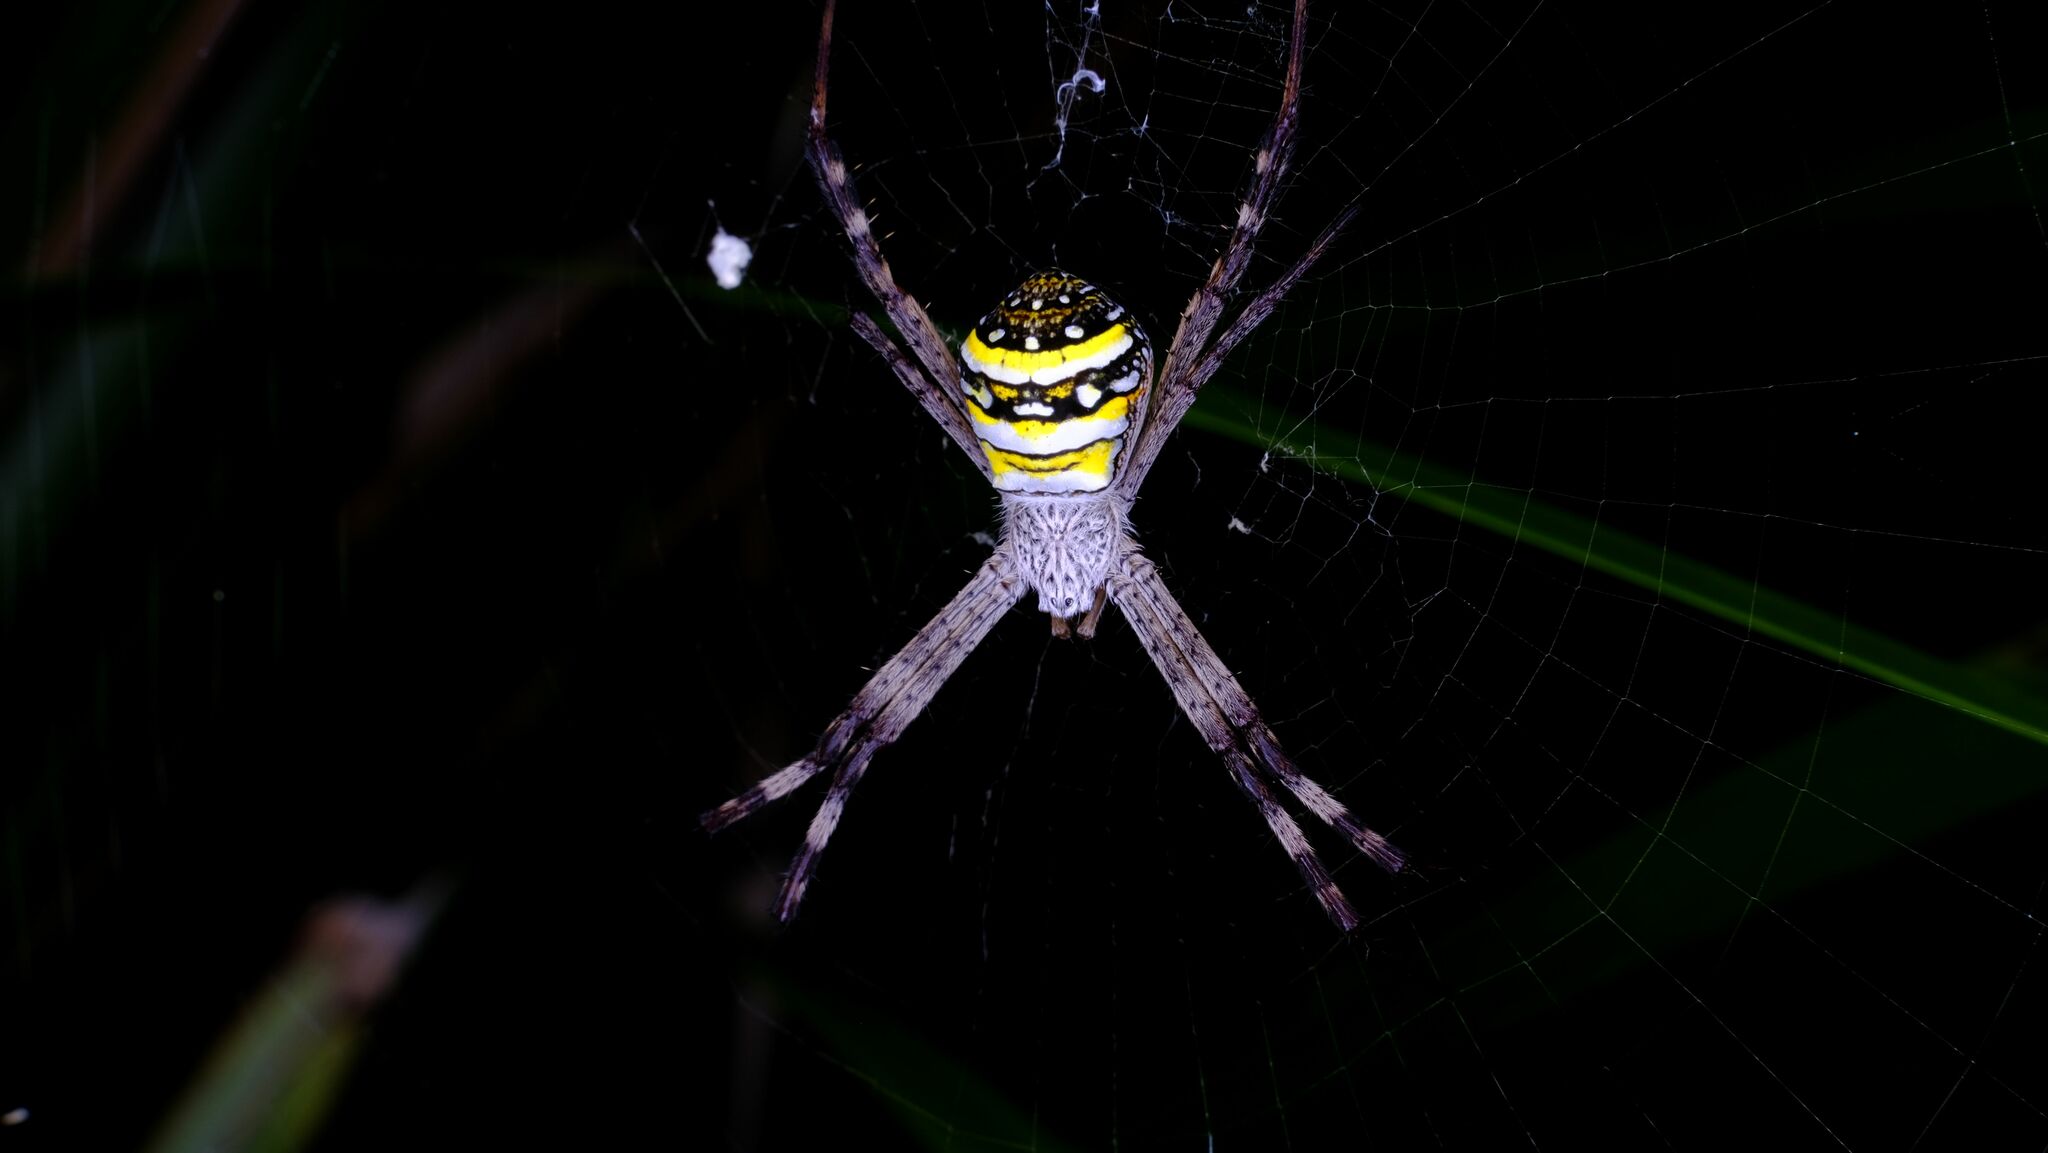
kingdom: Animalia
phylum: Arthropoda
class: Arachnida
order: Araneae
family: Araneidae
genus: Argiope
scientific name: Argiope aetherea
